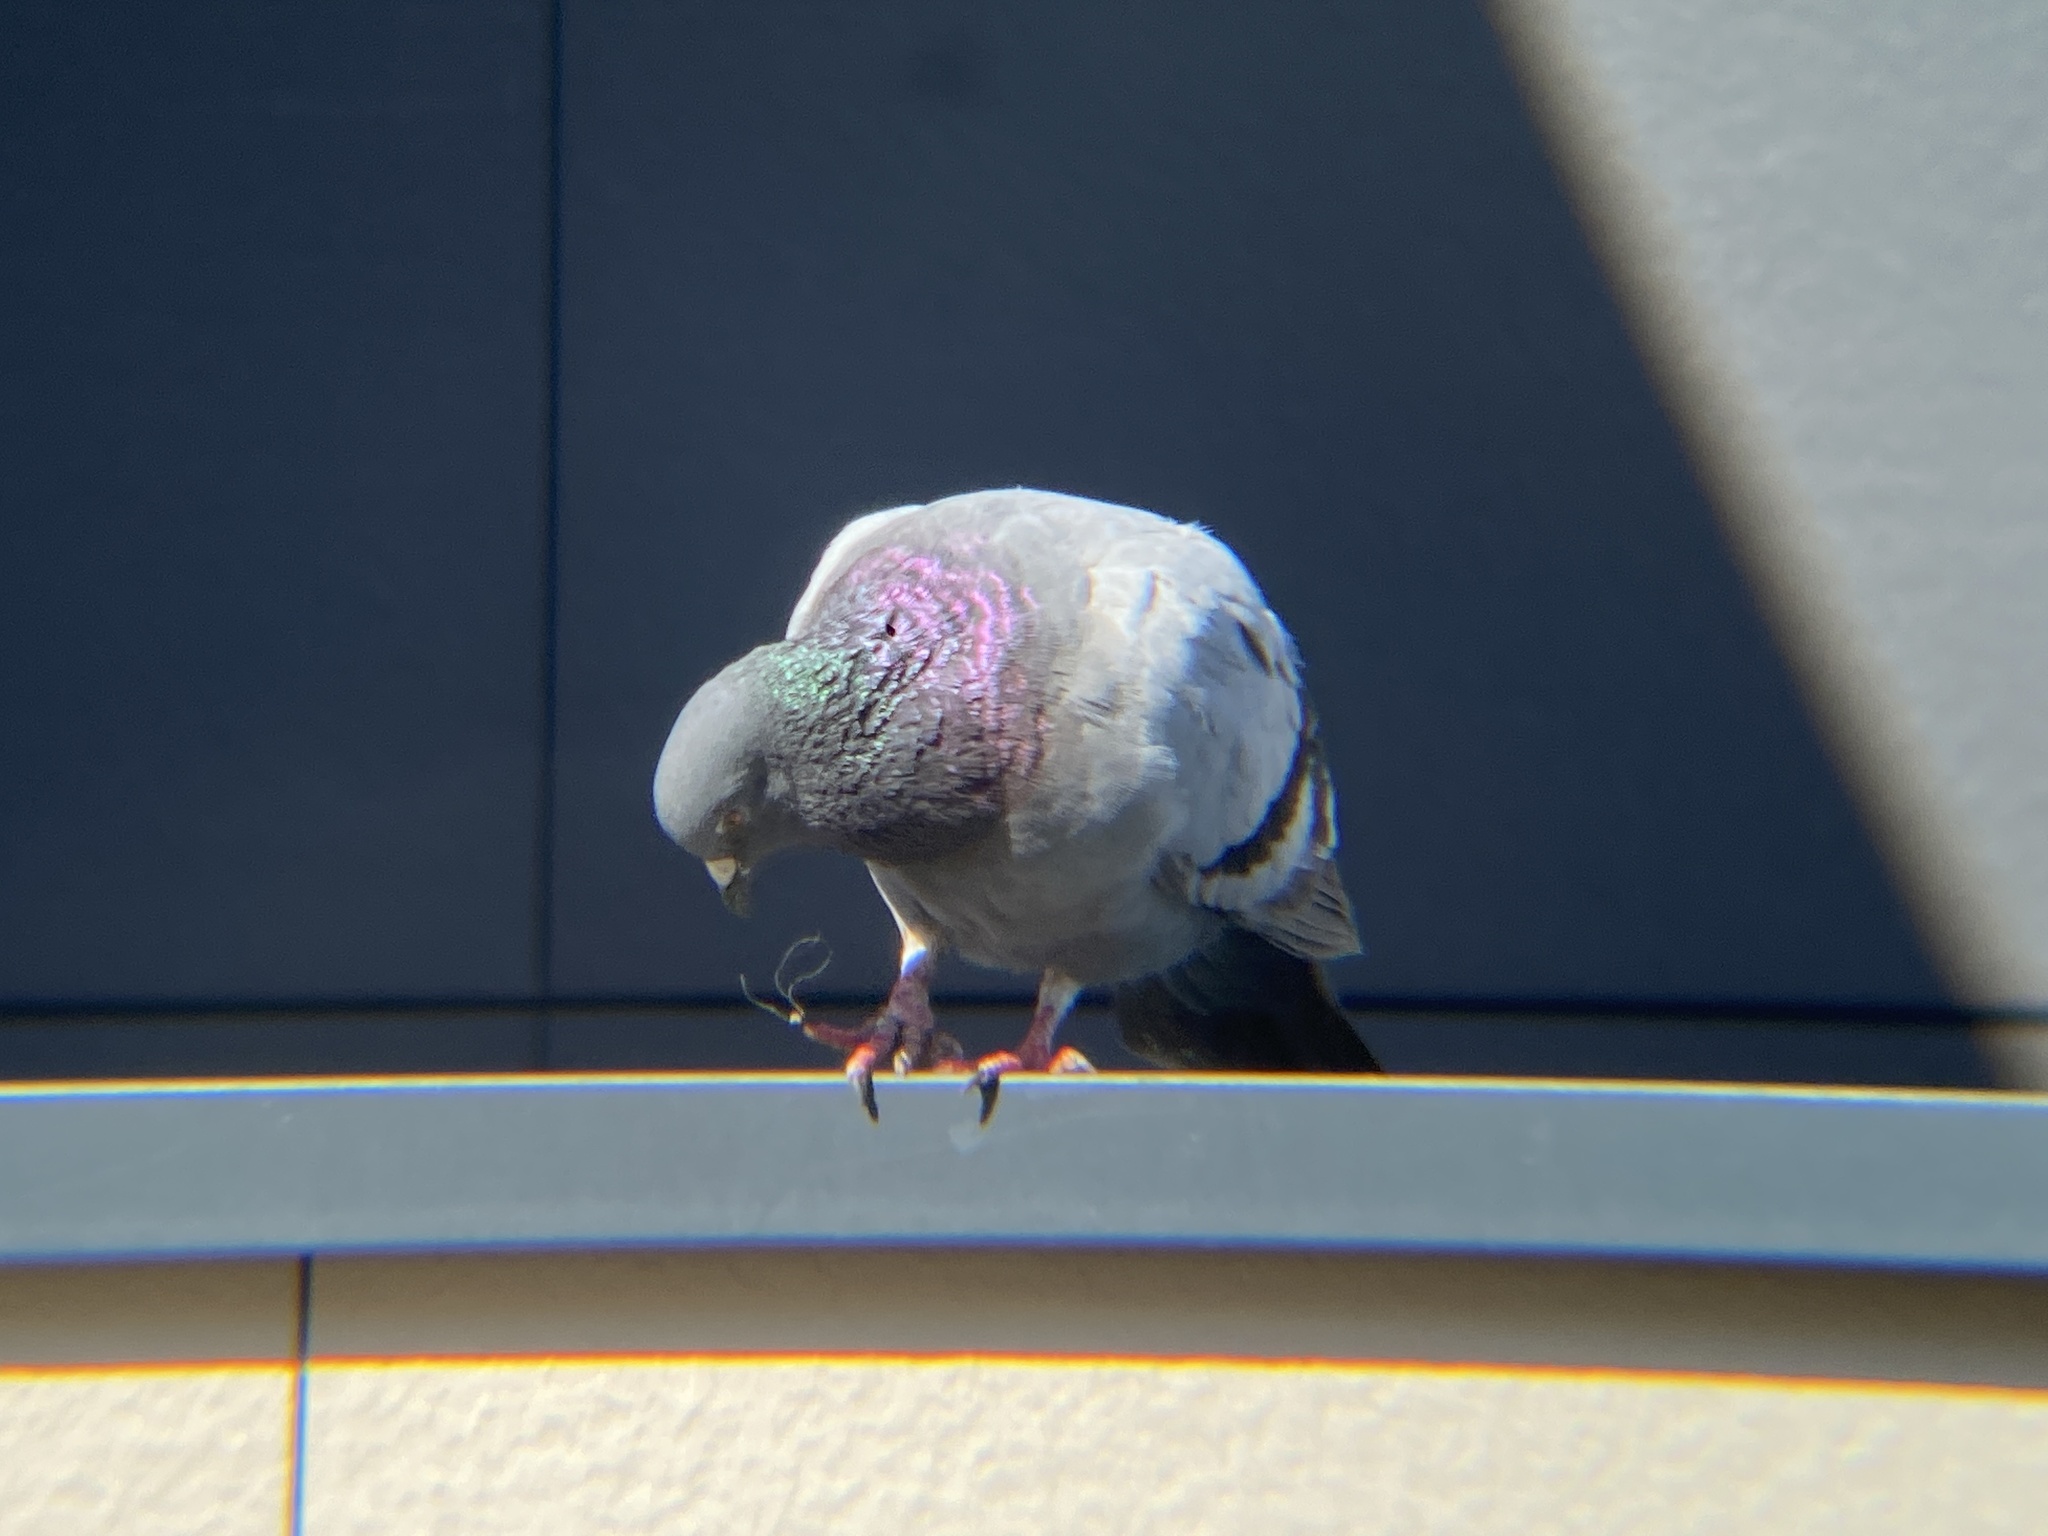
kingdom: Animalia
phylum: Chordata
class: Aves
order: Columbiformes
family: Columbidae
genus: Columba
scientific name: Columba livia
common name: Rock pigeon
